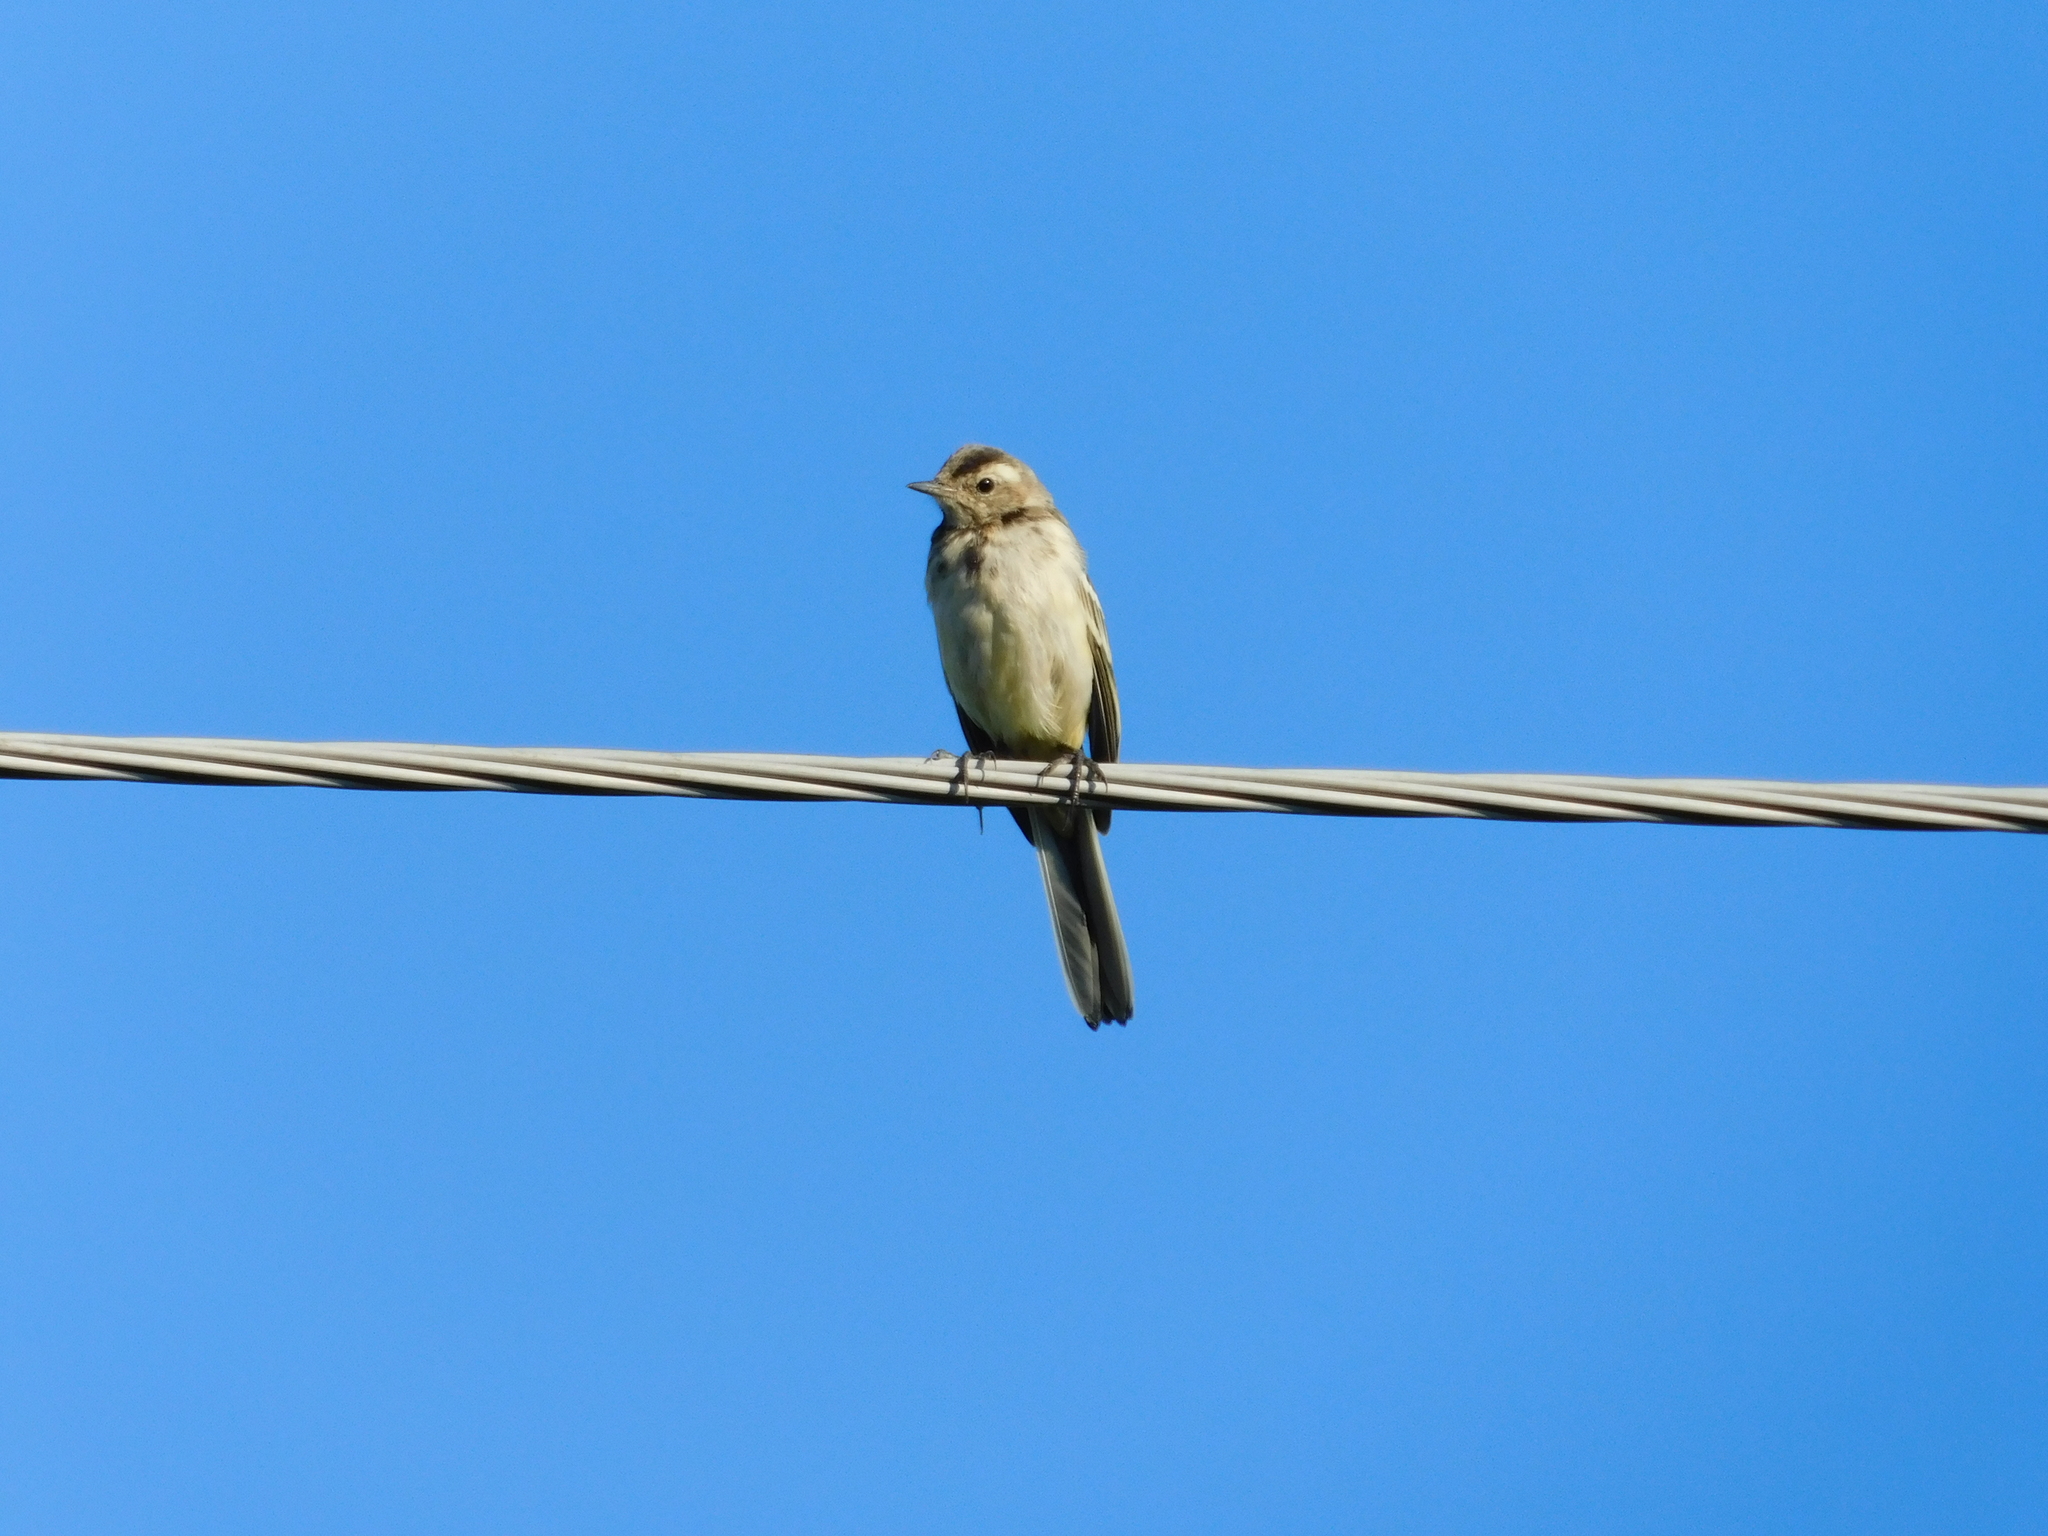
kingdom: Animalia
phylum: Chordata
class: Aves
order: Passeriformes
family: Motacillidae
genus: Motacilla
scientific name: Motacilla alba
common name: White wagtail
